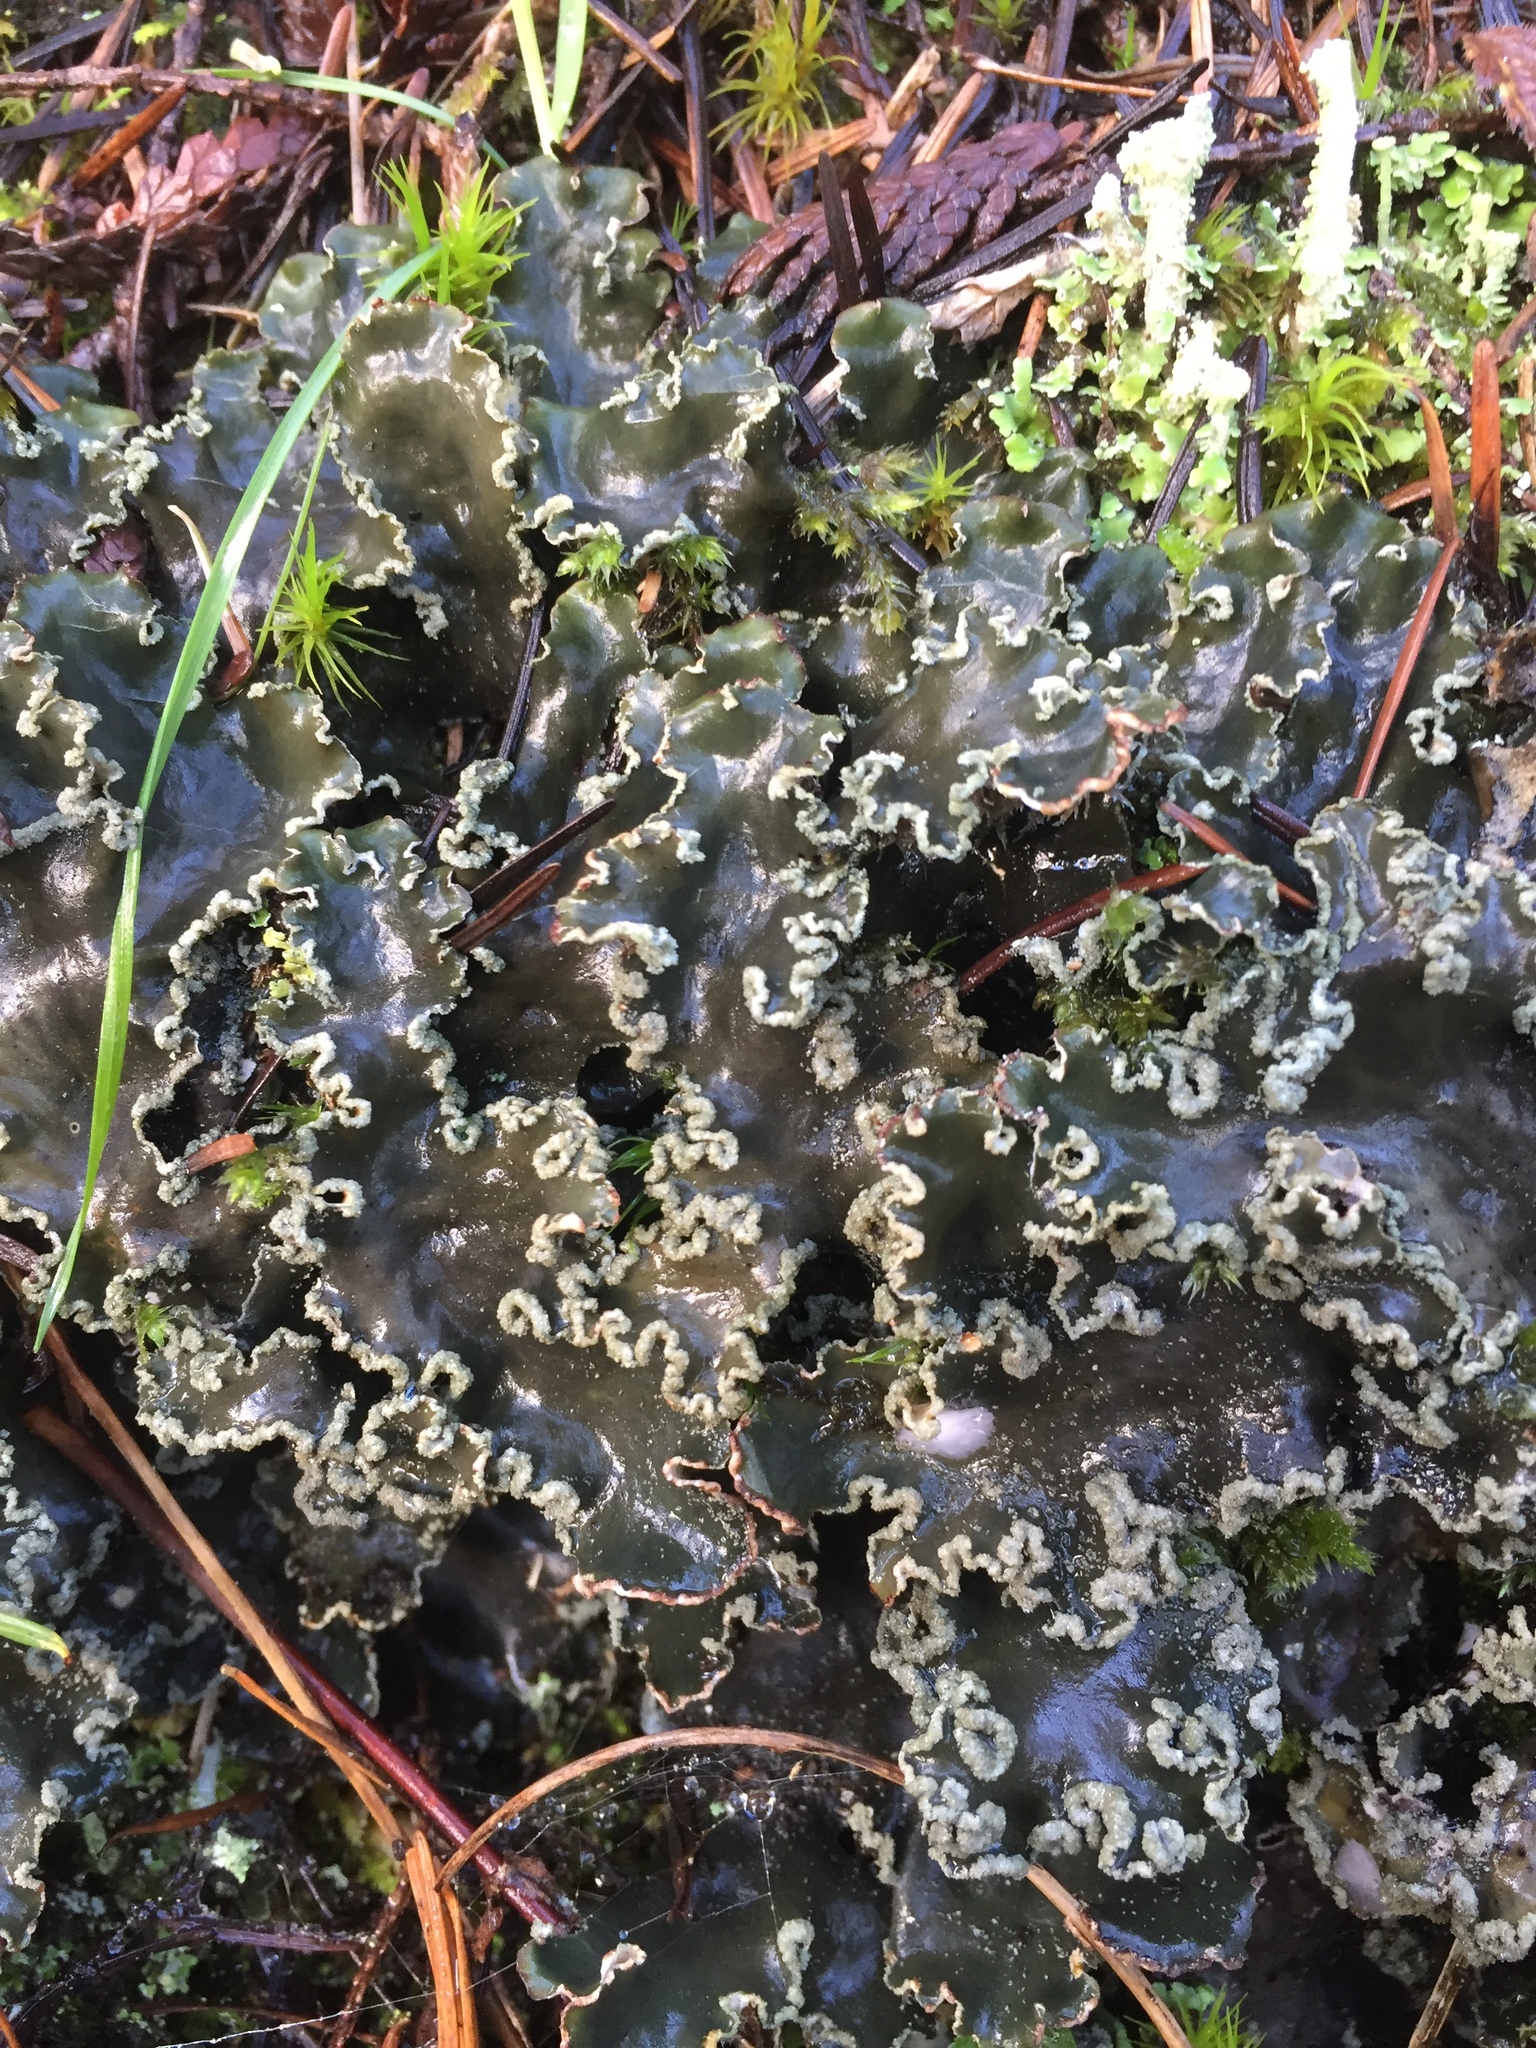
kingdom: Fungi
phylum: Ascomycota
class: Lecanoromycetes
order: Peltigerales
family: Peltigeraceae
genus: Peltigera
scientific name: Peltigera collina
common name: Gritty tree pelt lichen
